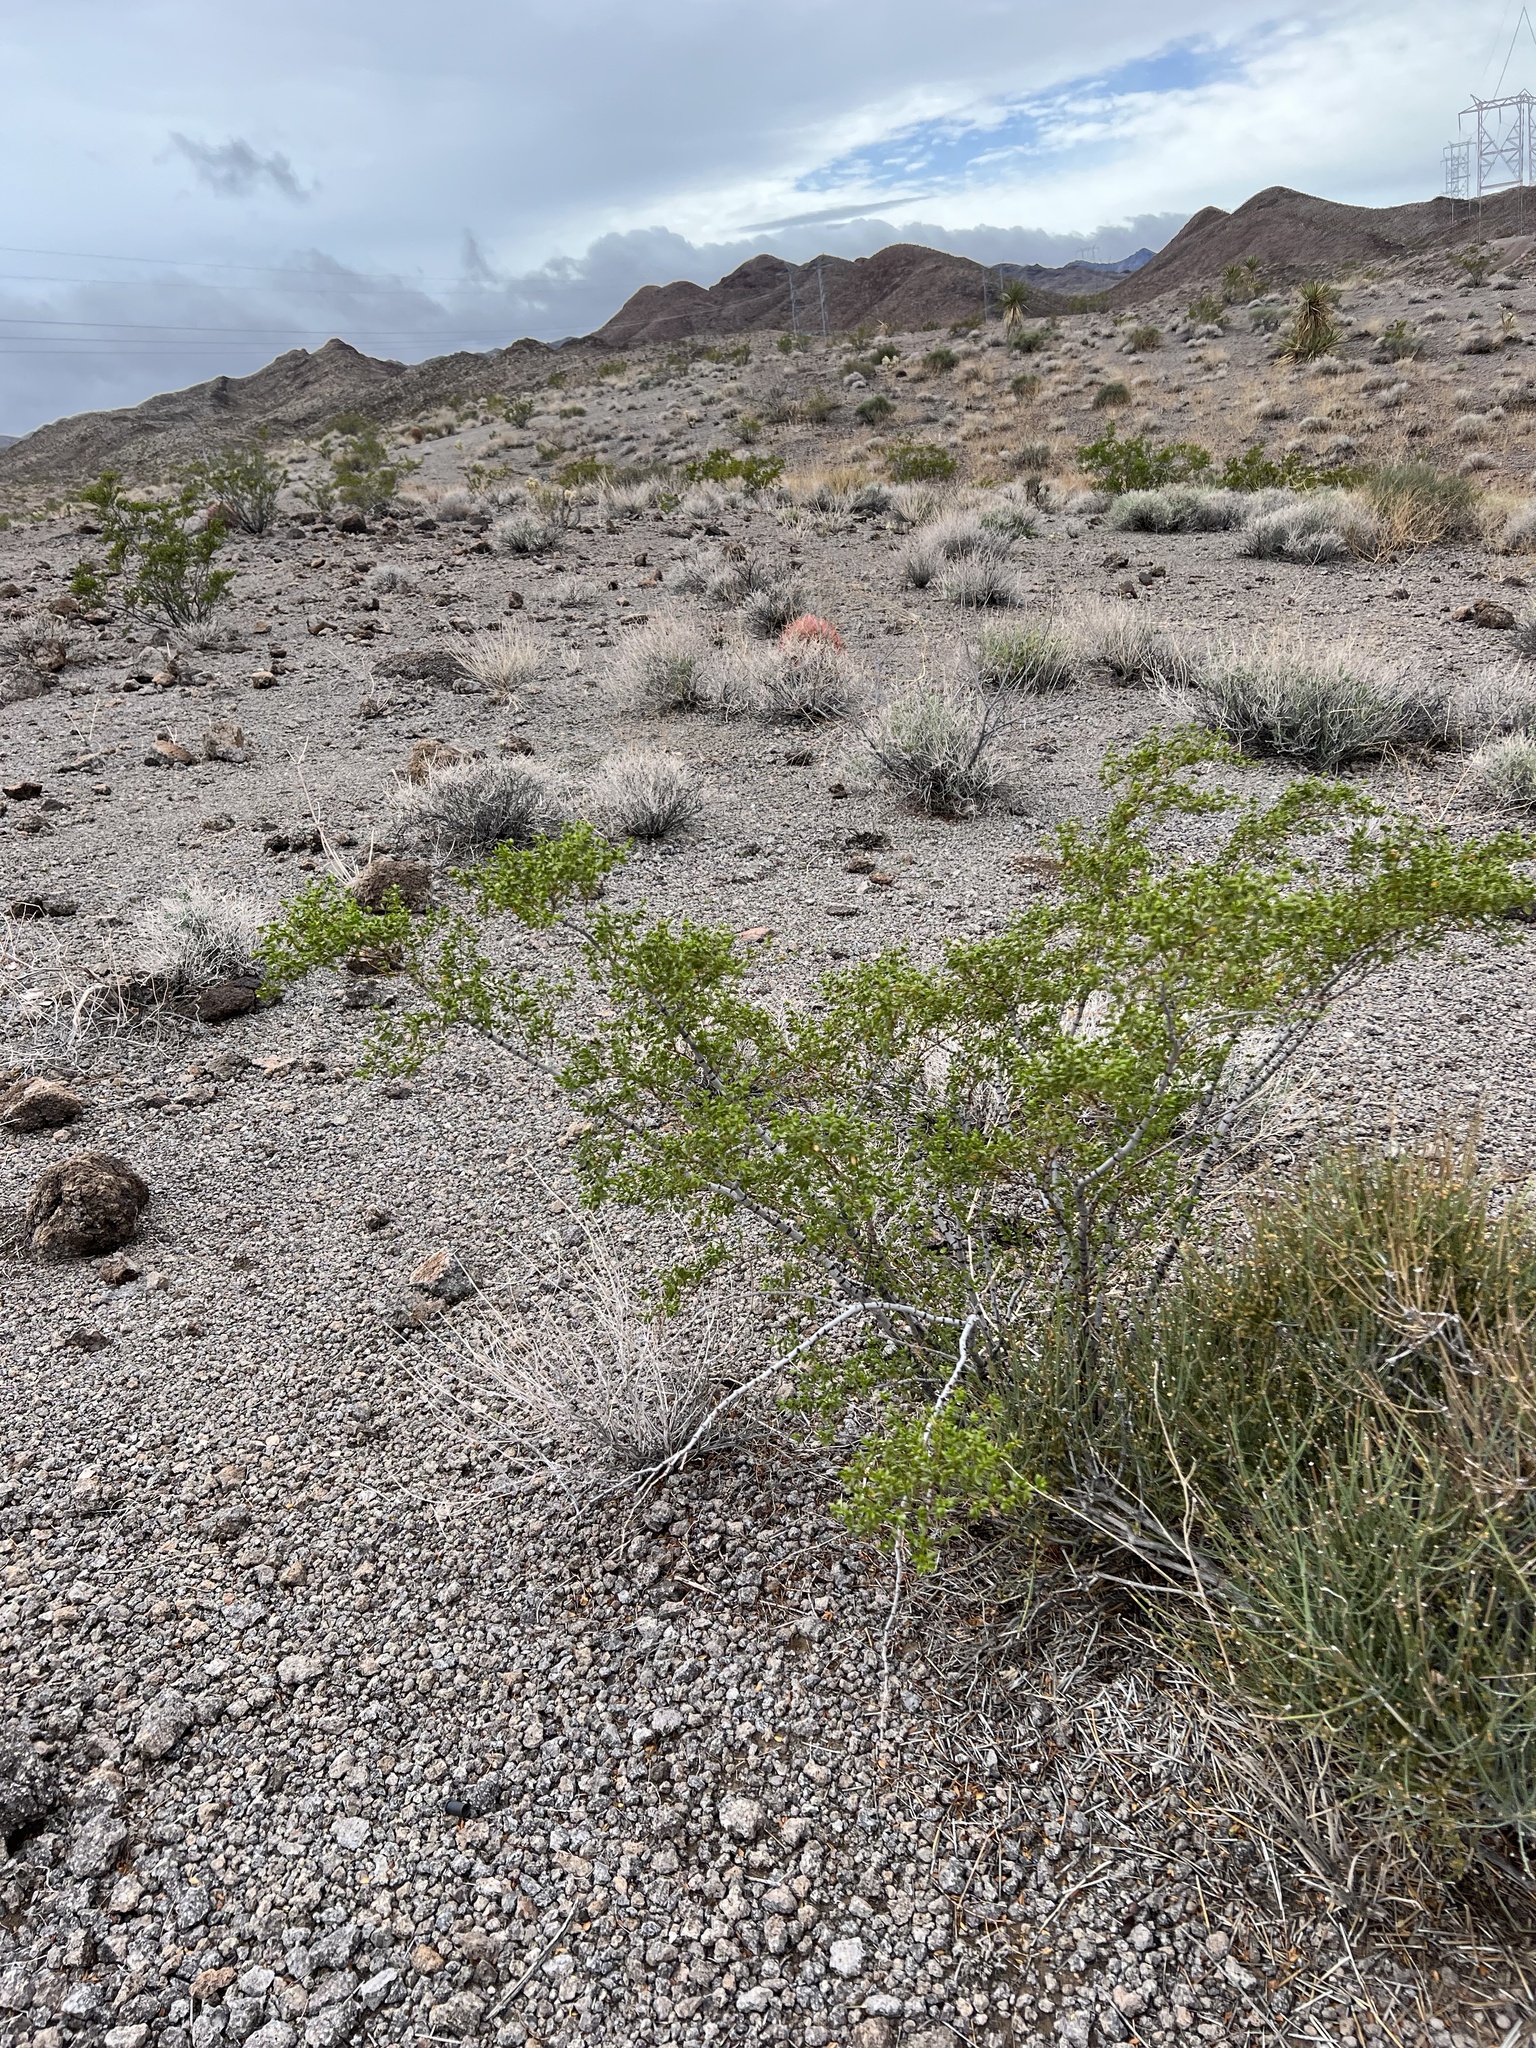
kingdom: Plantae
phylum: Tracheophyta
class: Magnoliopsida
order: Zygophyllales
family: Zygophyllaceae
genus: Larrea
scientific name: Larrea tridentata
